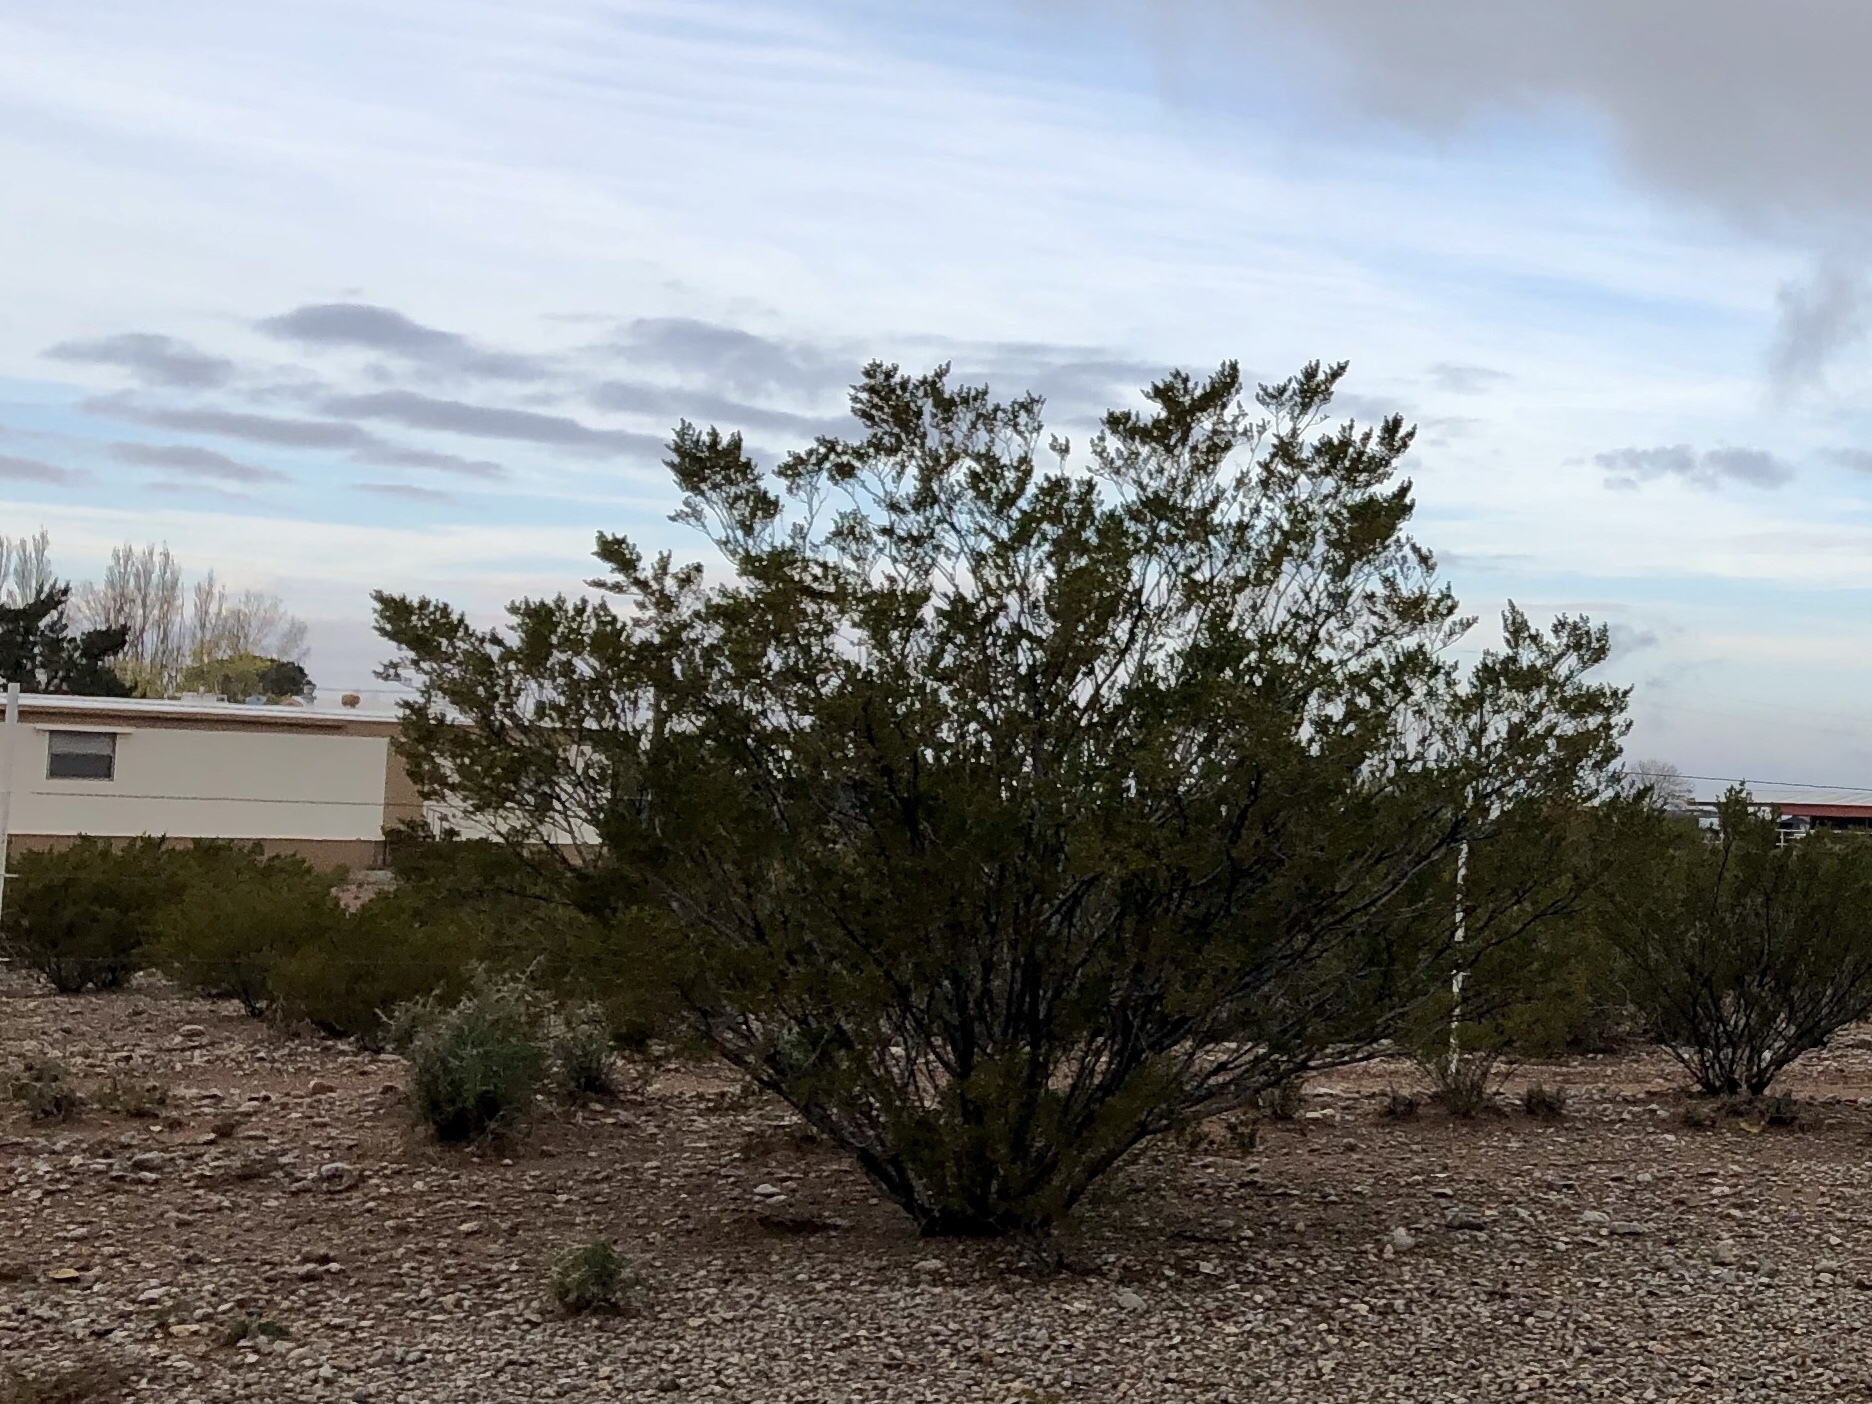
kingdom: Plantae
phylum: Tracheophyta
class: Magnoliopsida
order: Zygophyllales
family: Zygophyllaceae
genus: Larrea
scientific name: Larrea tridentata
